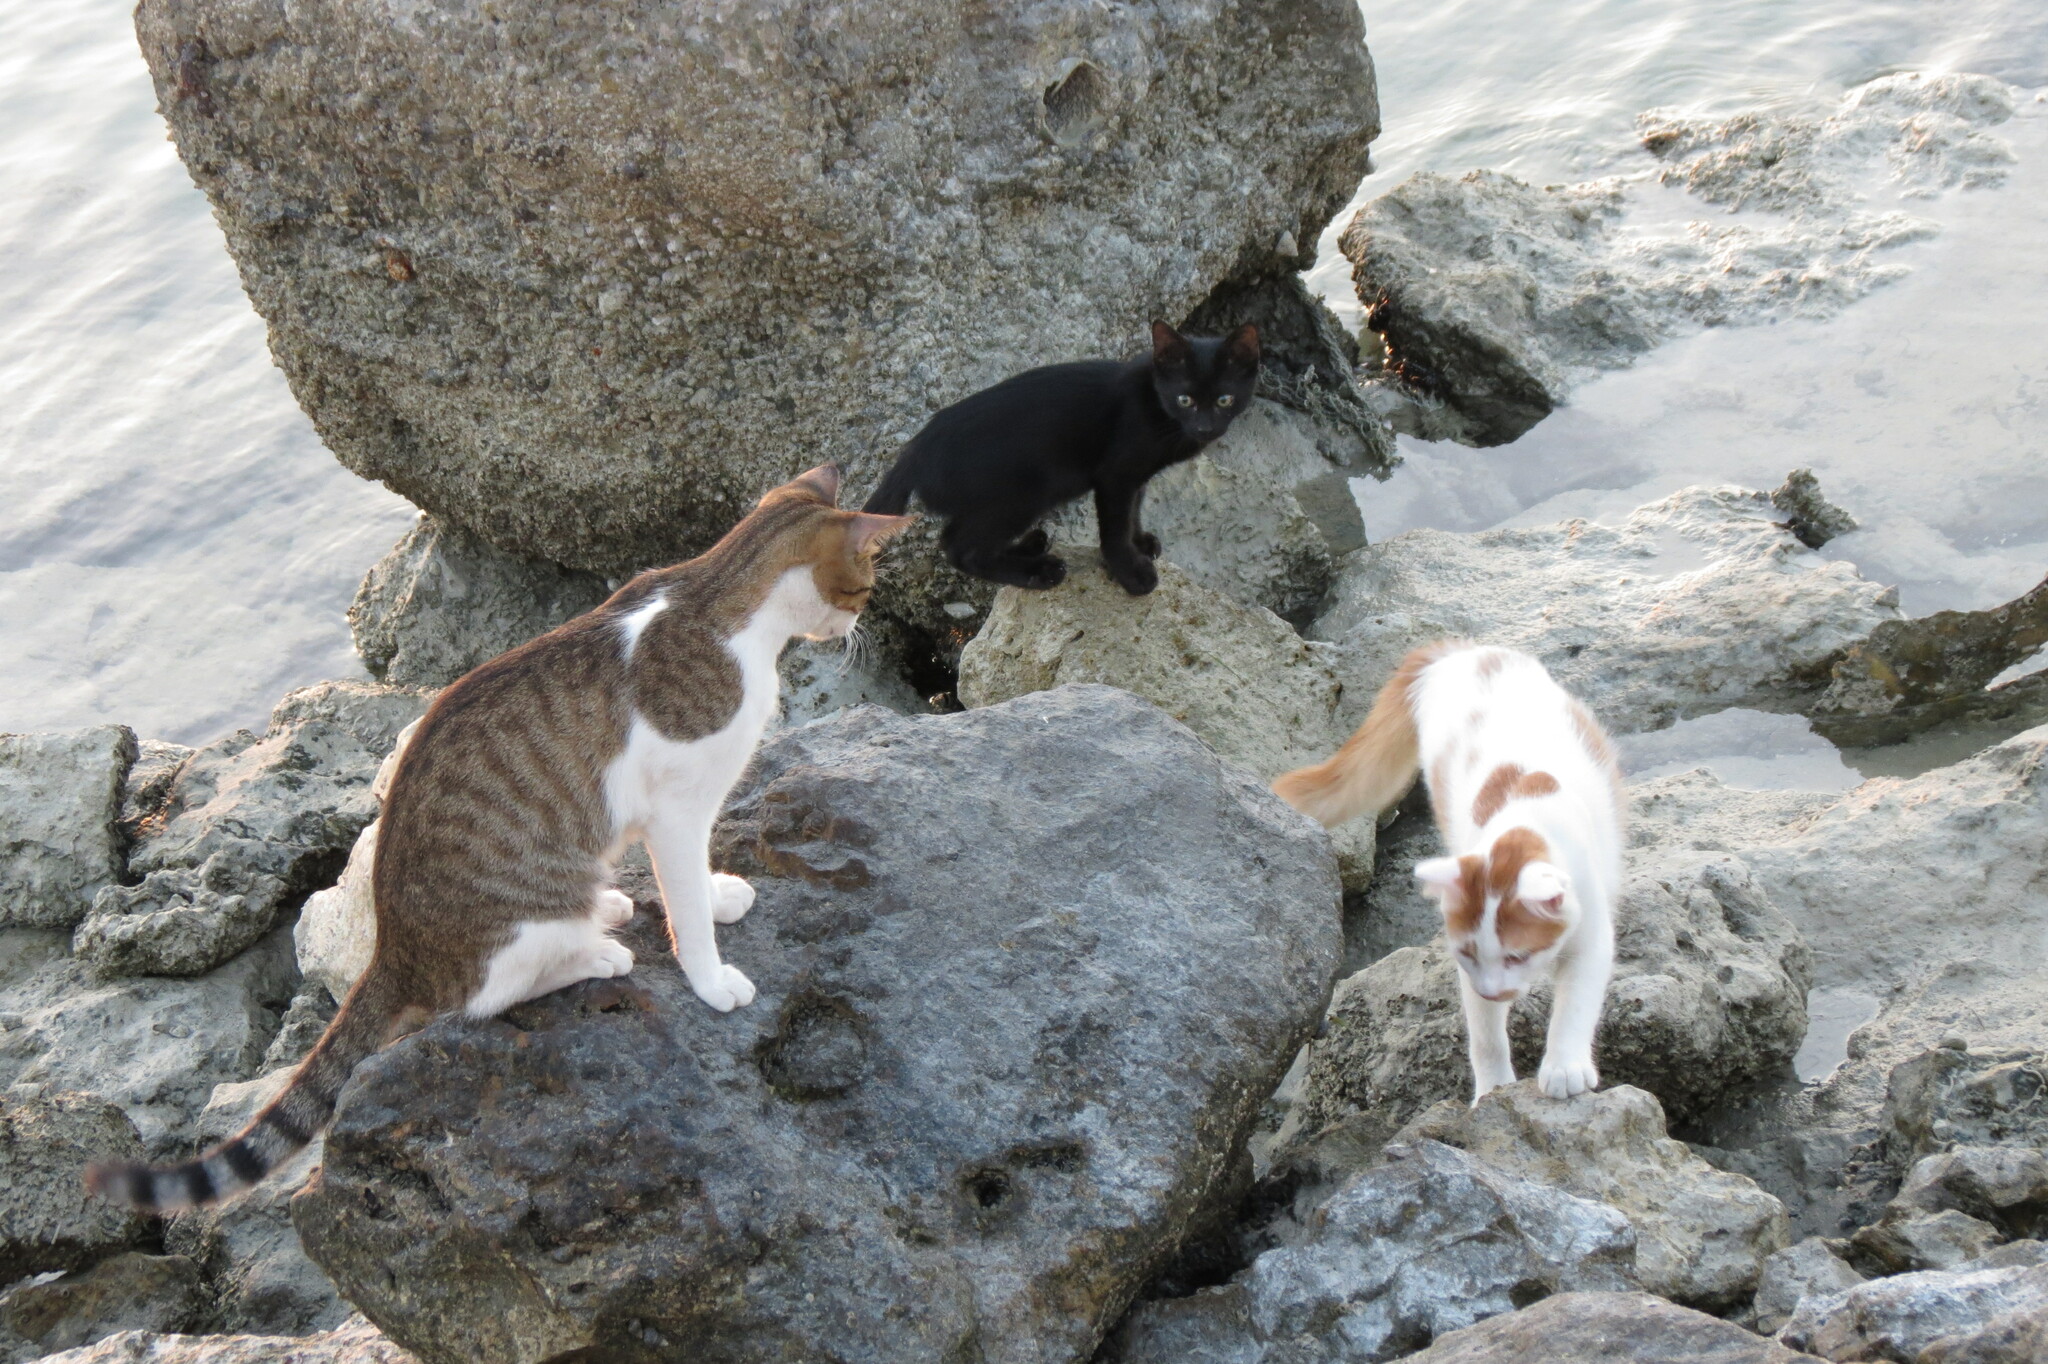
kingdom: Animalia
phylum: Chordata
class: Mammalia
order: Carnivora
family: Felidae
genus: Felis
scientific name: Felis catus
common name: Domestic cat
